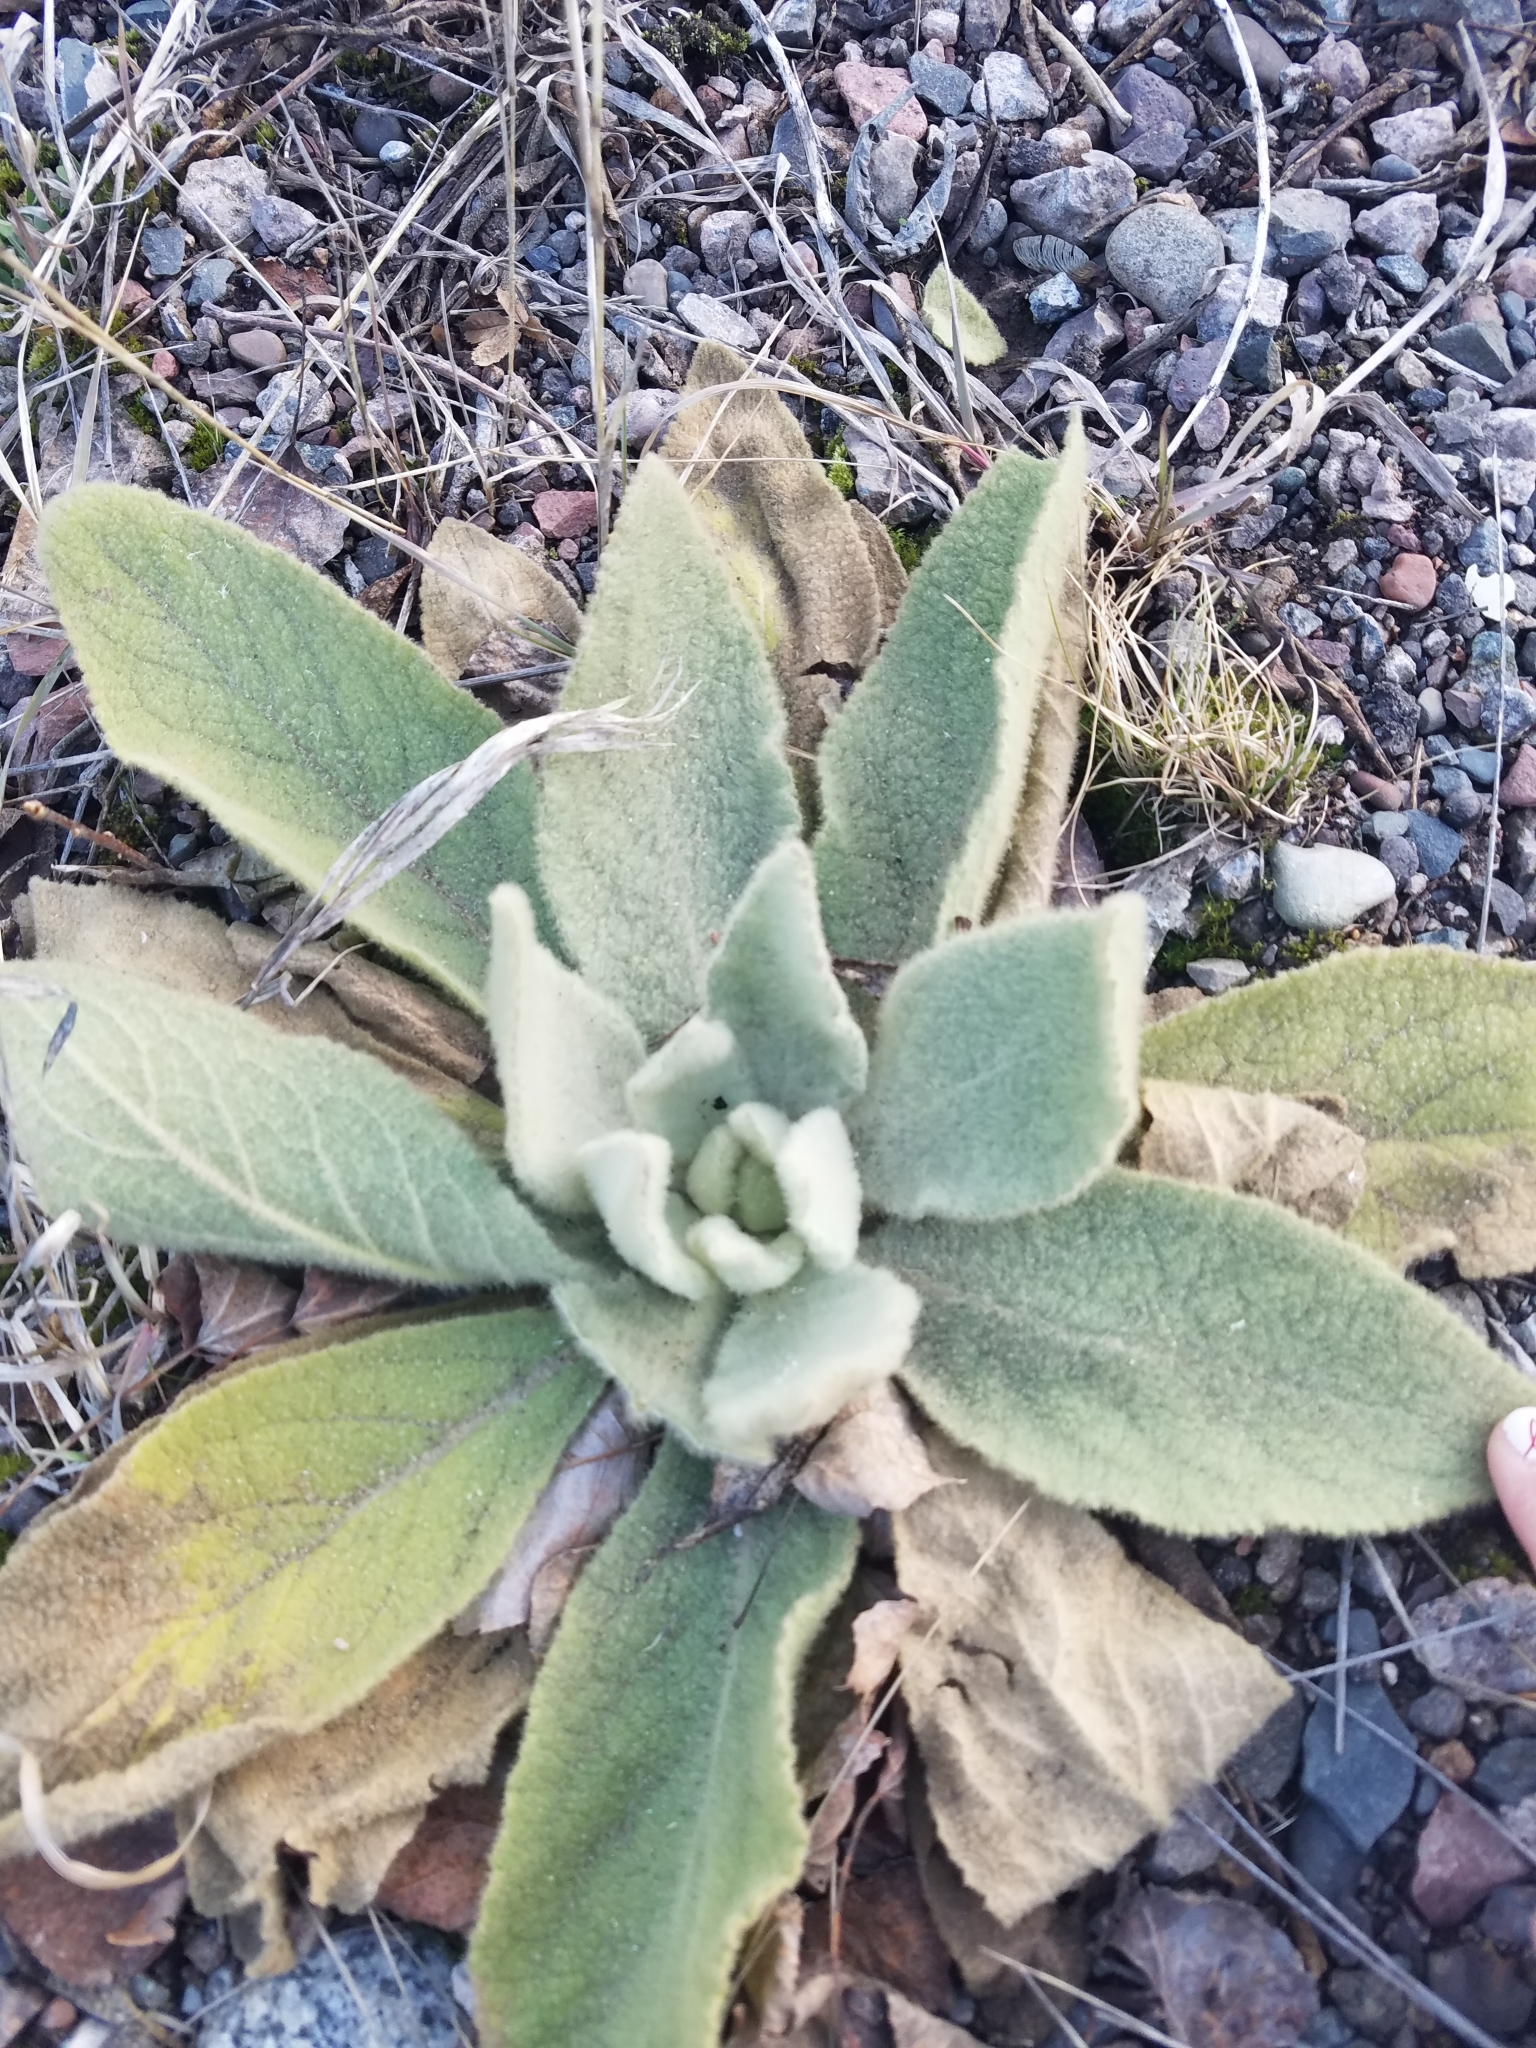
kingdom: Plantae
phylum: Tracheophyta
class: Magnoliopsida
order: Lamiales
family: Scrophulariaceae
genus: Verbascum
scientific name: Verbascum thapsus
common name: Common mullein
